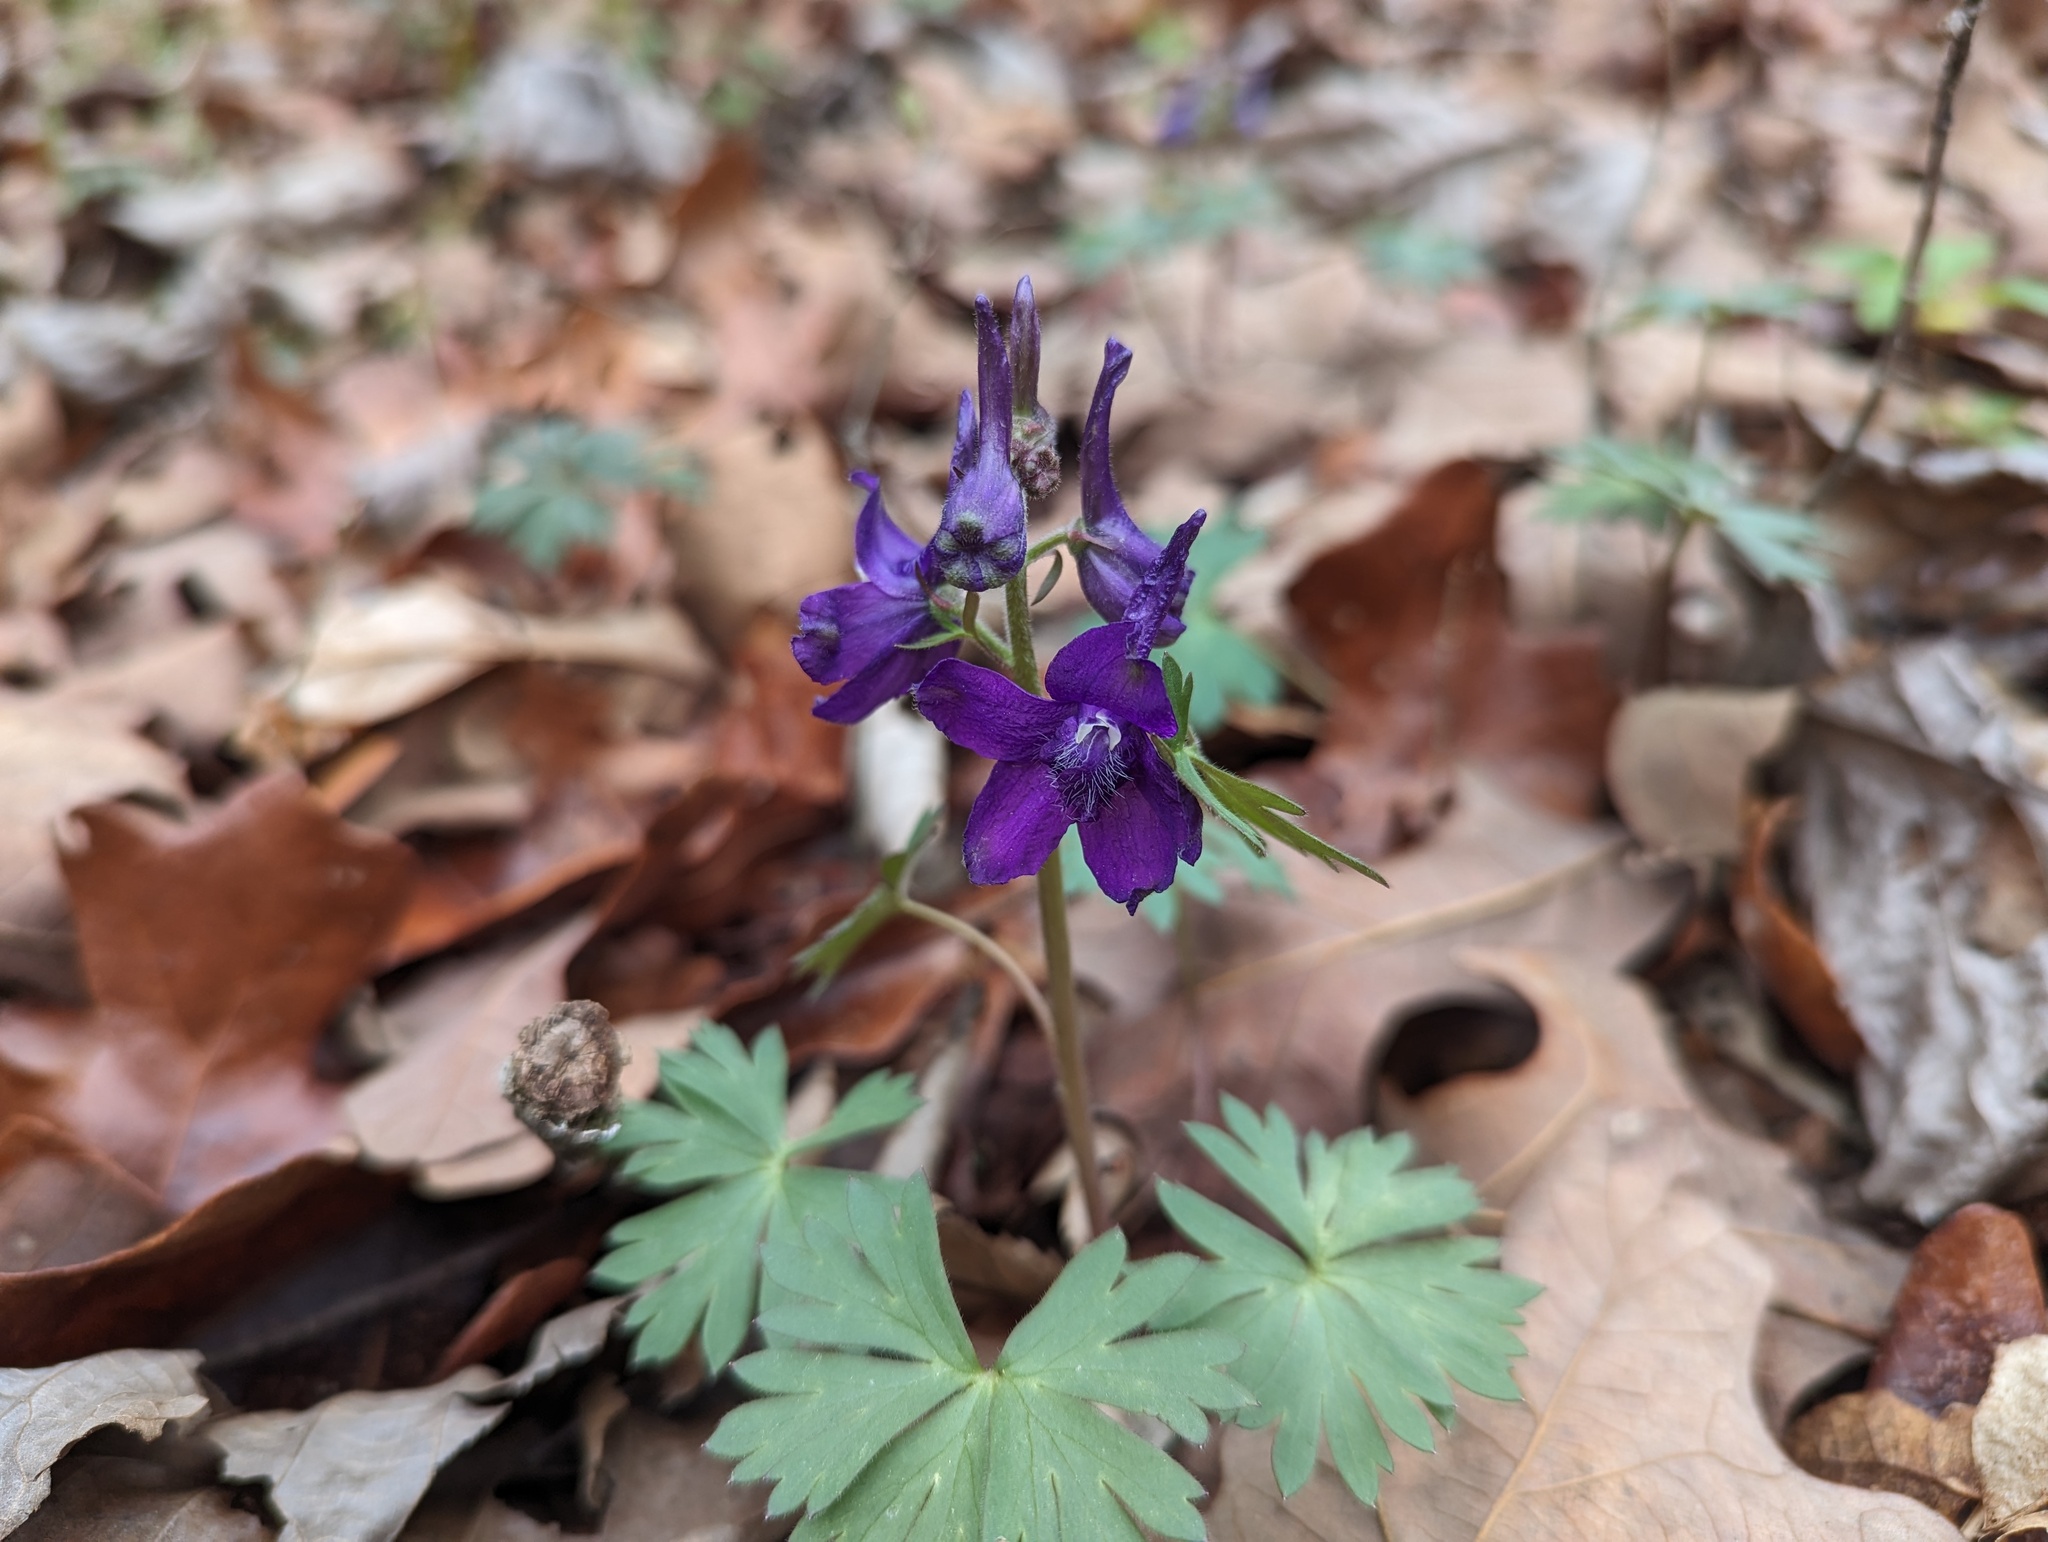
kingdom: Plantae
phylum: Tracheophyta
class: Magnoliopsida
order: Ranunculales
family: Ranunculaceae
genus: Delphinium
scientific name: Delphinium tricorne
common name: Dwarf larkspur
